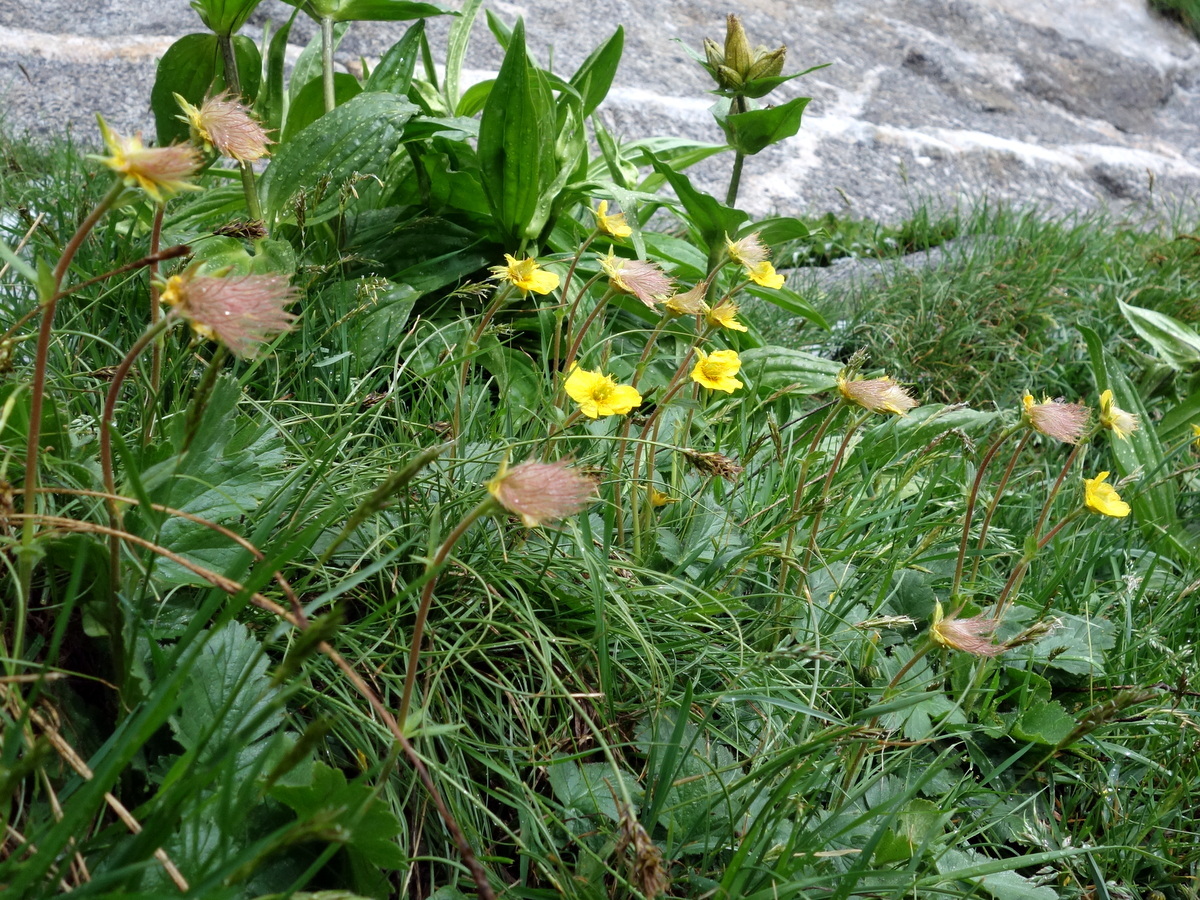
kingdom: Plantae
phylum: Tracheophyta
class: Magnoliopsida
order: Rosales
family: Rosaceae
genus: Geum
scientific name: Geum montanum
